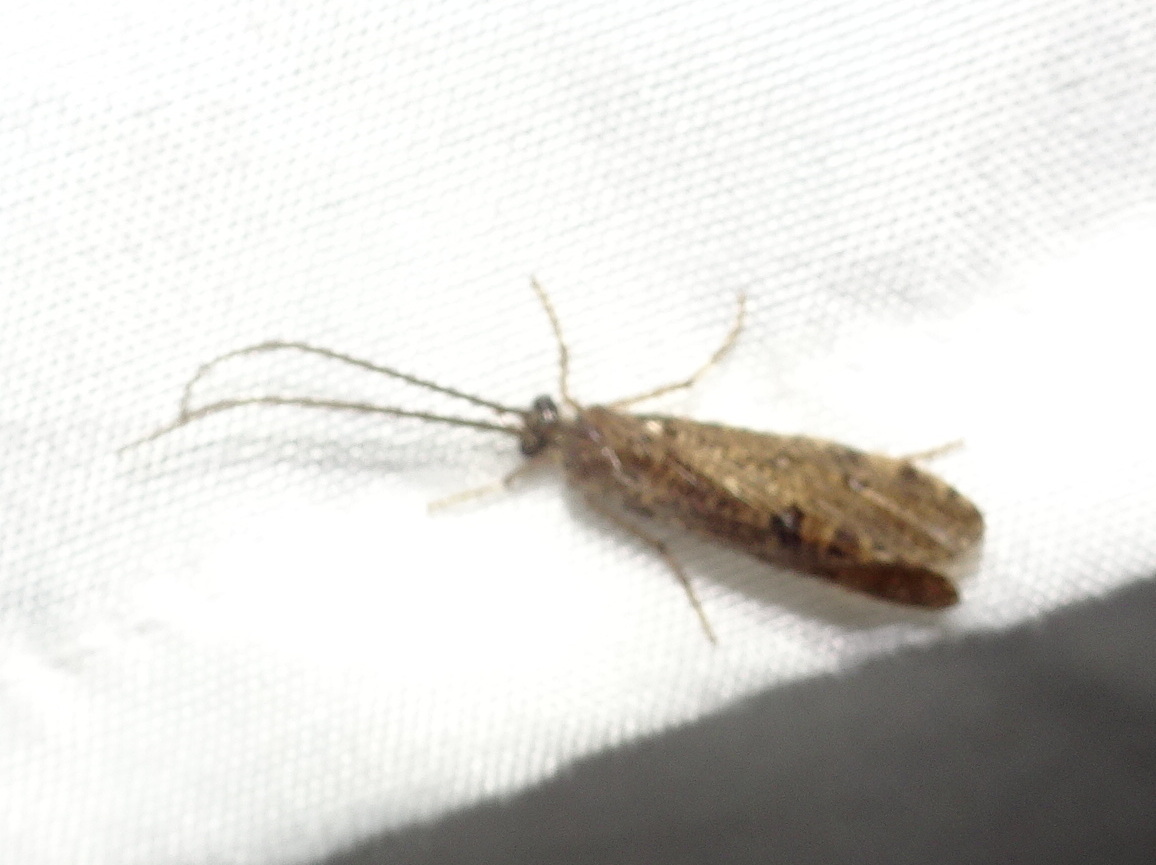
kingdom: Animalia
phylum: Arthropoda
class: Insecta
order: Trichoptera
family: Phryganeidae
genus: Banksiola
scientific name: Banksiola crotchi
